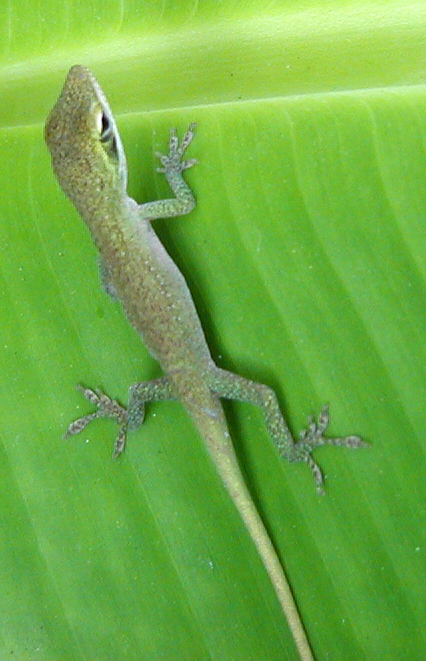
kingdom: Animalia
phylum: Chordata
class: Squamata
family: Dactyloidae
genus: Anolis
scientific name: Anolis carolinensis
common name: Green anole
